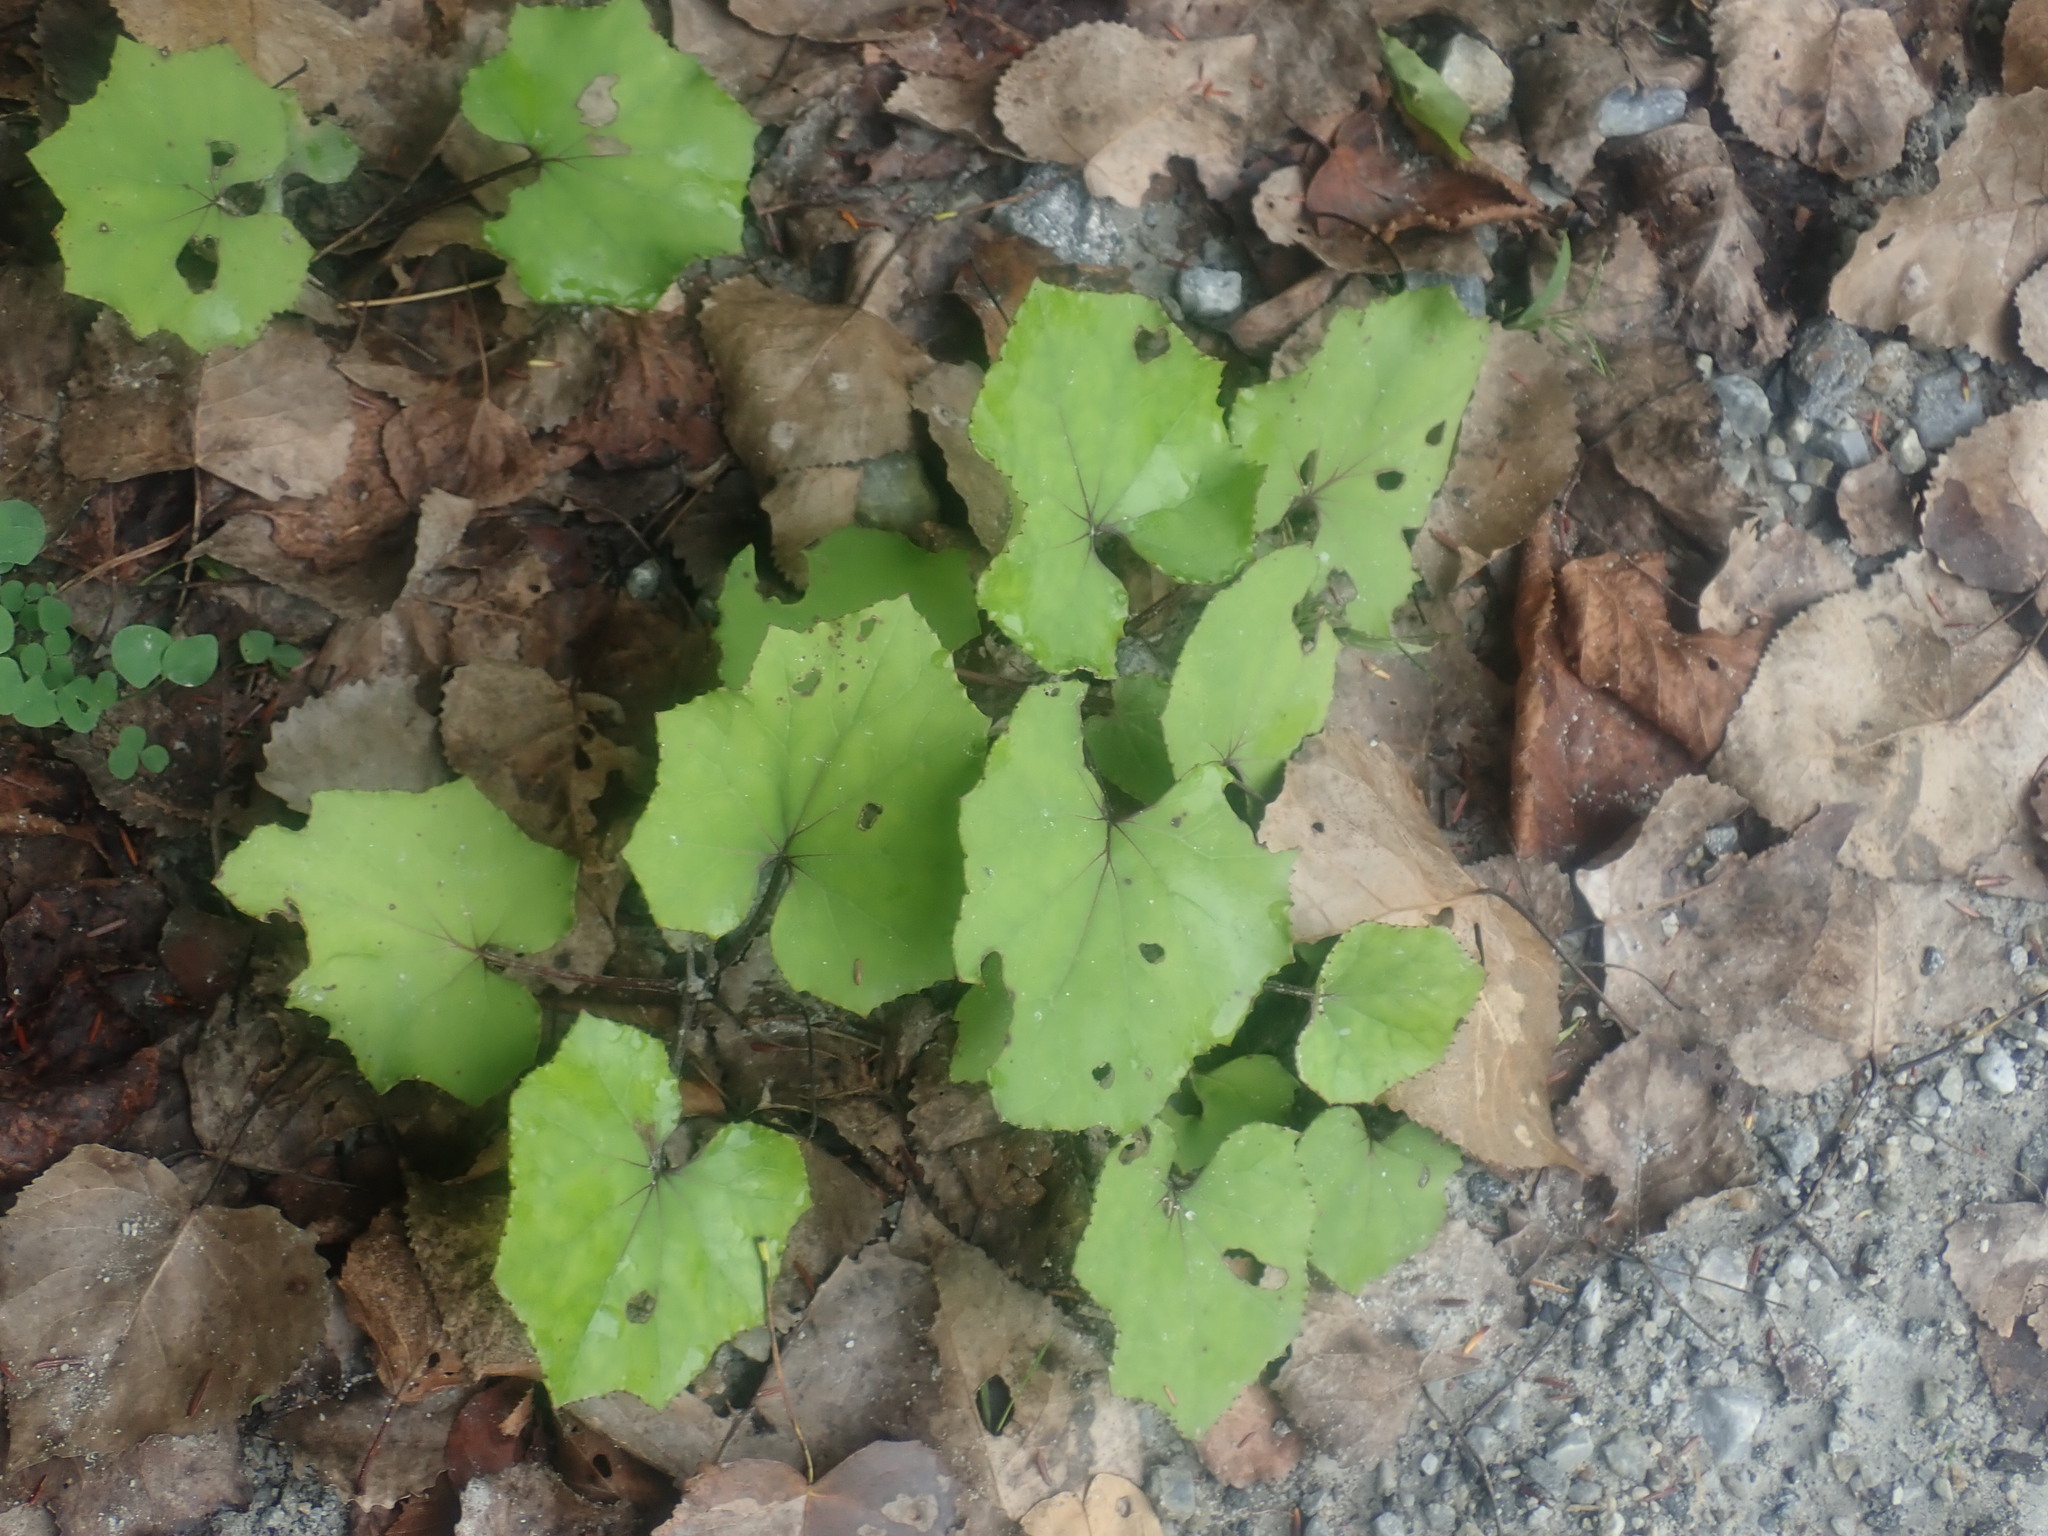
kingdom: Plantae
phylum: Tracheophyta
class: Magnoliopsida
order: Asterales
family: Asteraceae
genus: Tussilago
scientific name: Tussilago farfara
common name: Coltsfoot
